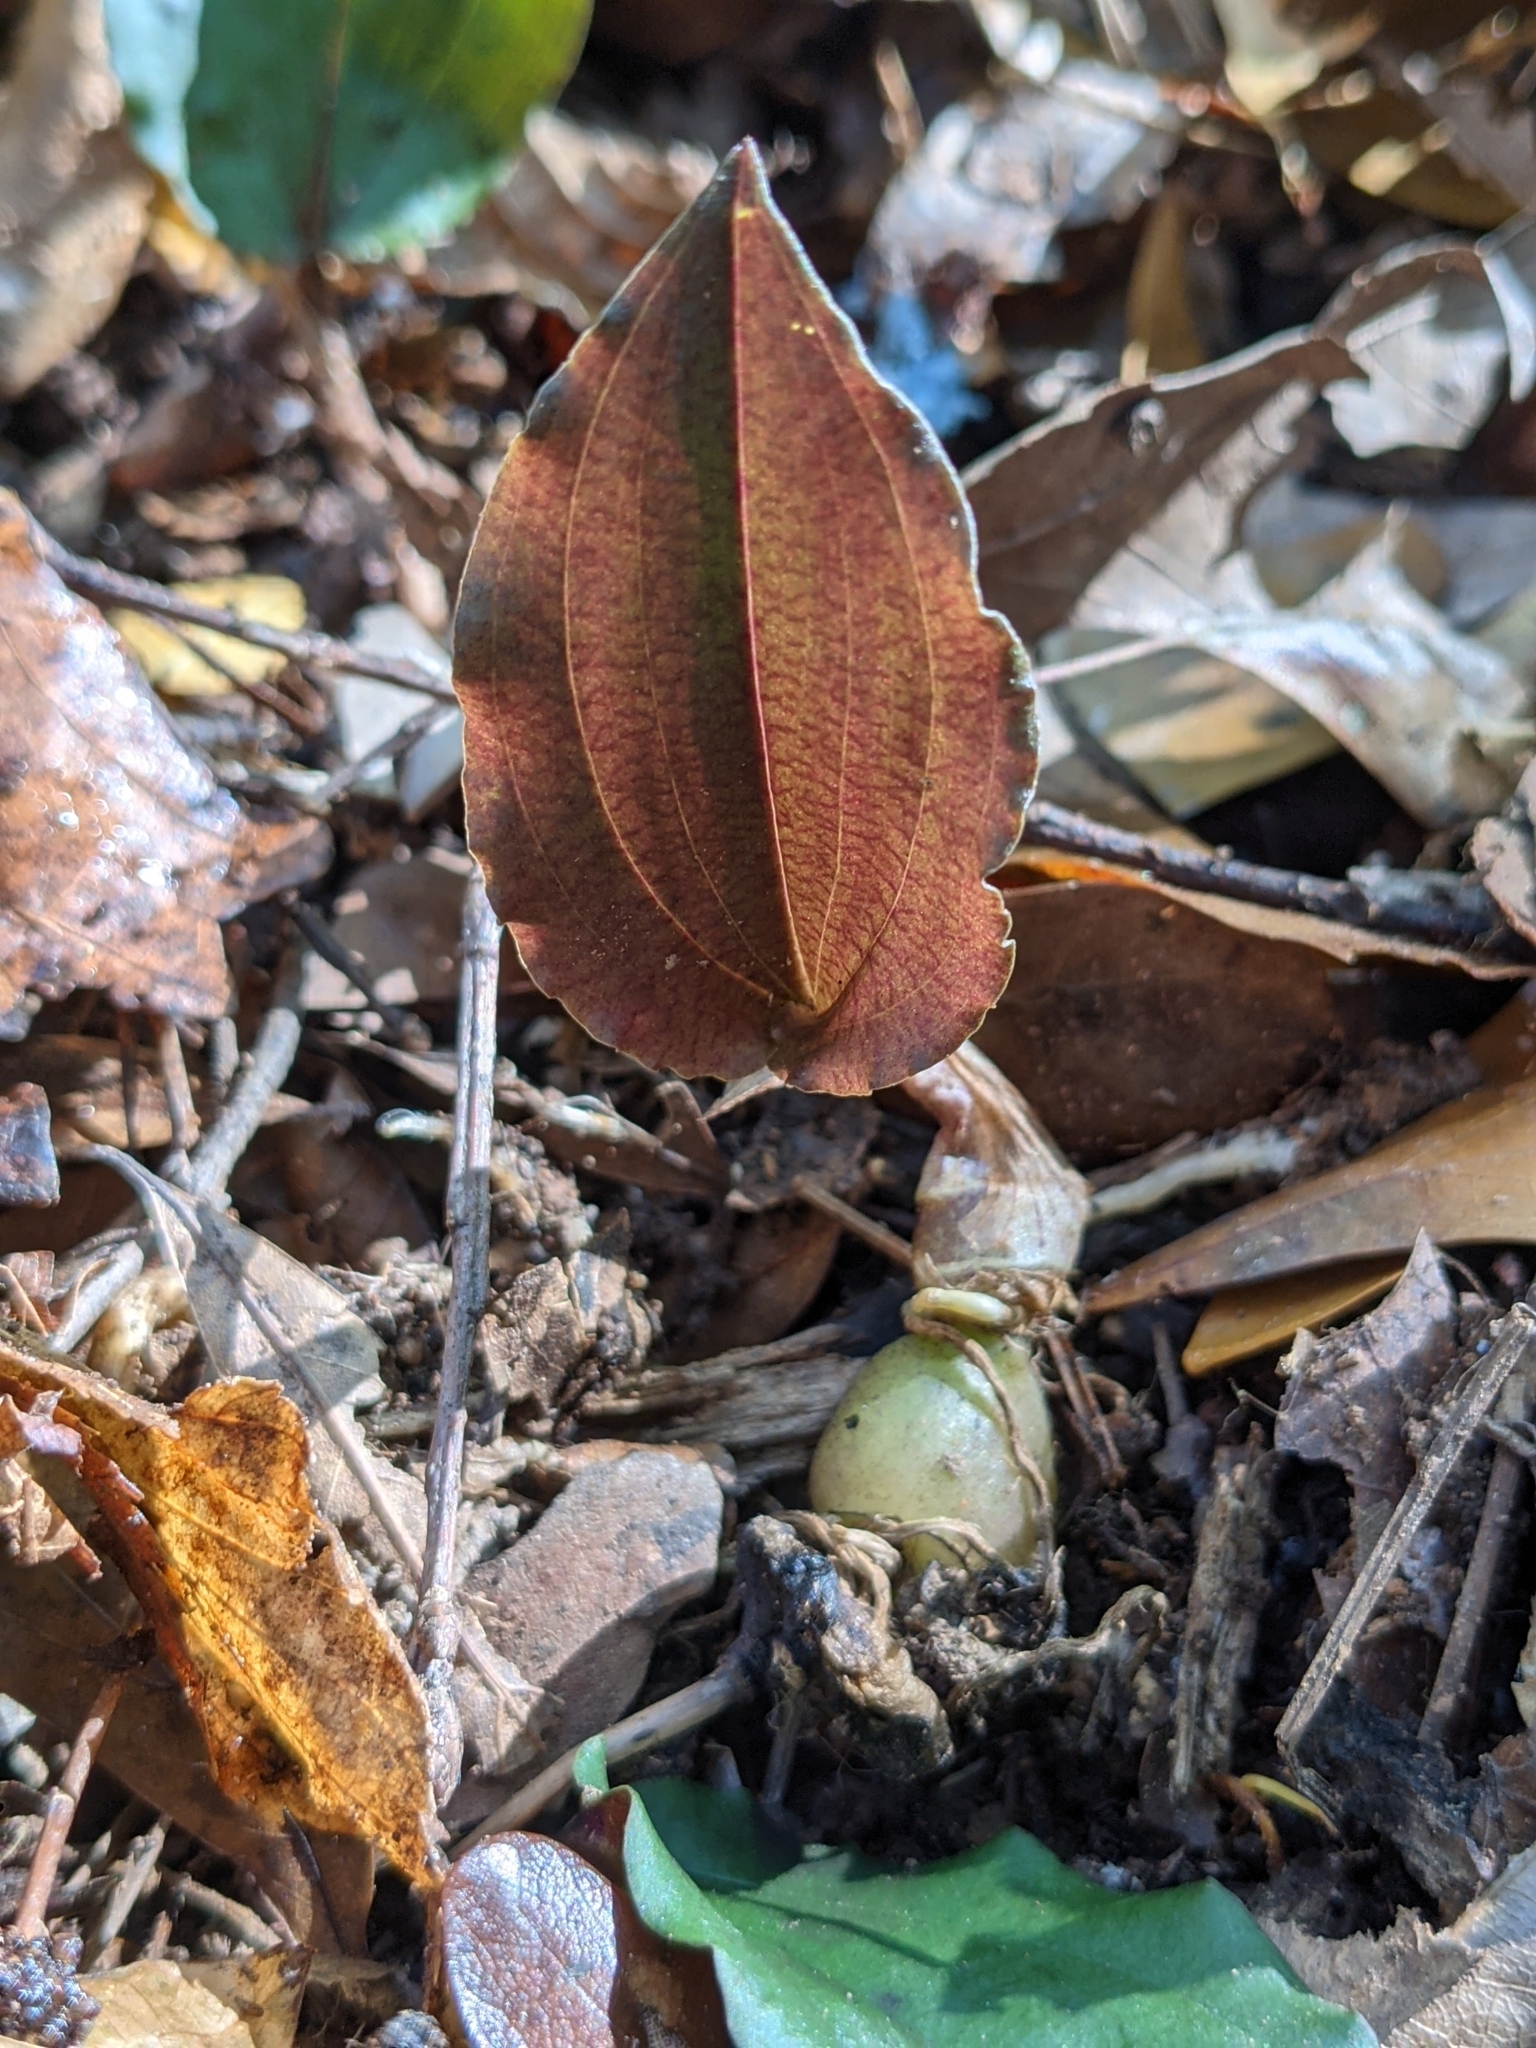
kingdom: Plantae
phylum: Tracheophyta
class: Liliopsida
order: Asparagales
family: Orchidaceae
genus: Tipularia
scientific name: Tipularia discolor
